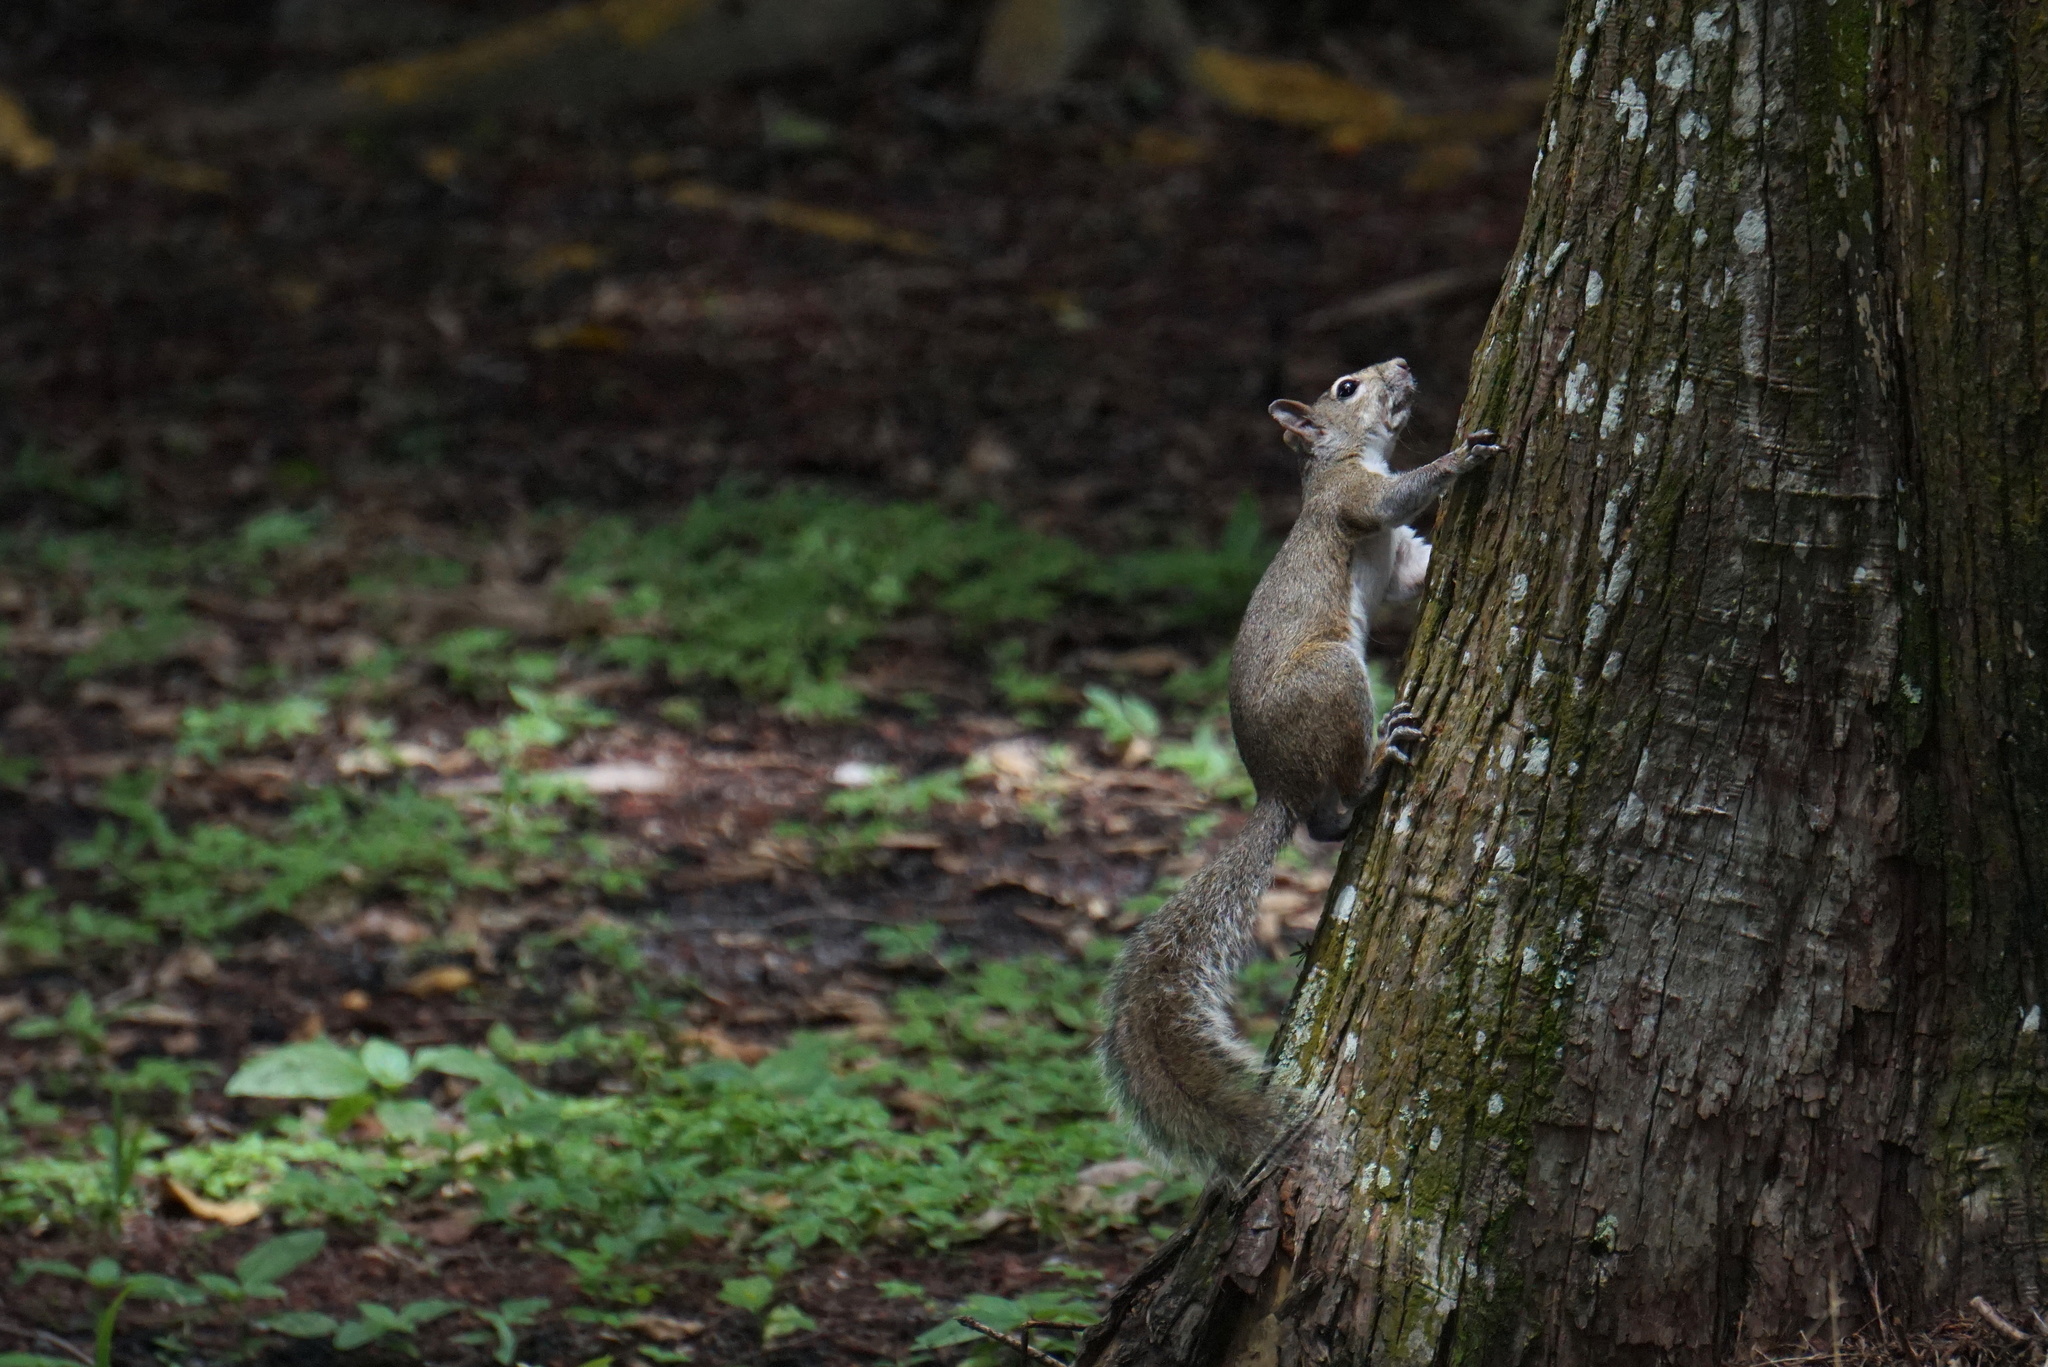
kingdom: Animalia
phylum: Chordata
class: Mammalia
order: Rodentia
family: Sciuridae
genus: Sciurus
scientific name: Sciurus carolinensis
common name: Eastern gray squirrel
